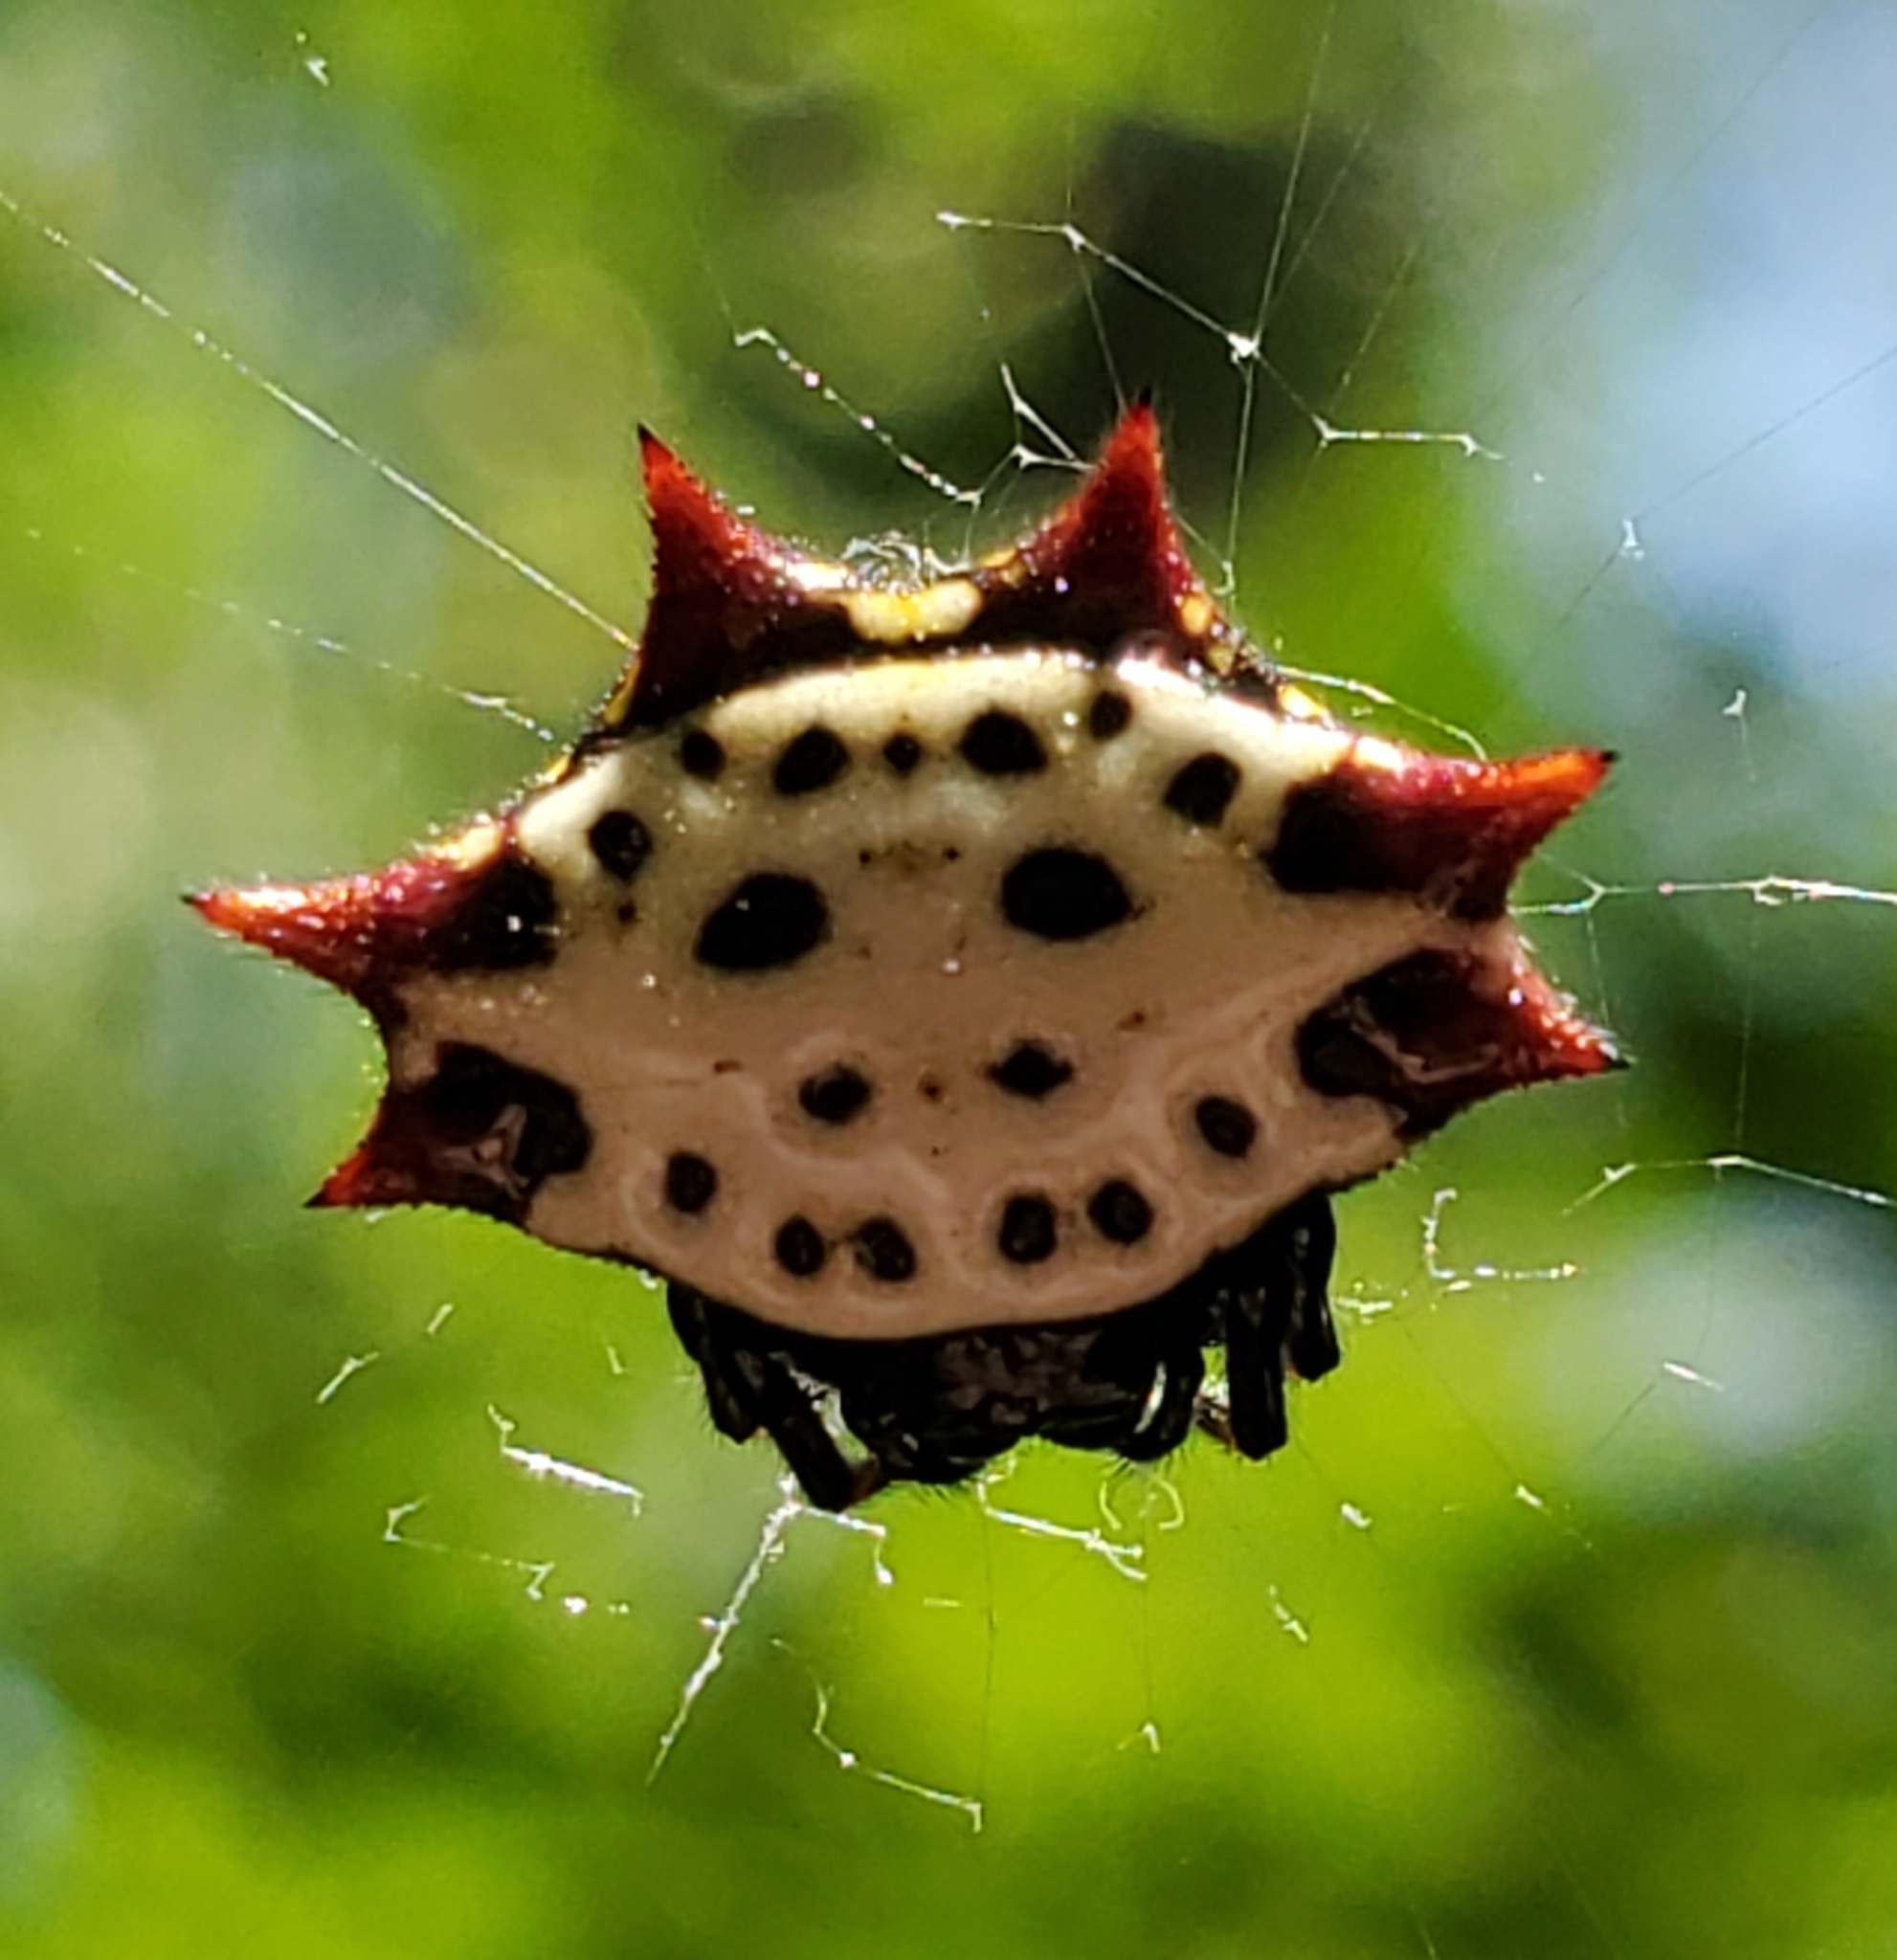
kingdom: Animalia
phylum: Arthropoda
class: Arachnida
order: Araneae
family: Araneidae
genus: Gasteracantha
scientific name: Gasteracantha cancriformis
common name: Orb weavers
